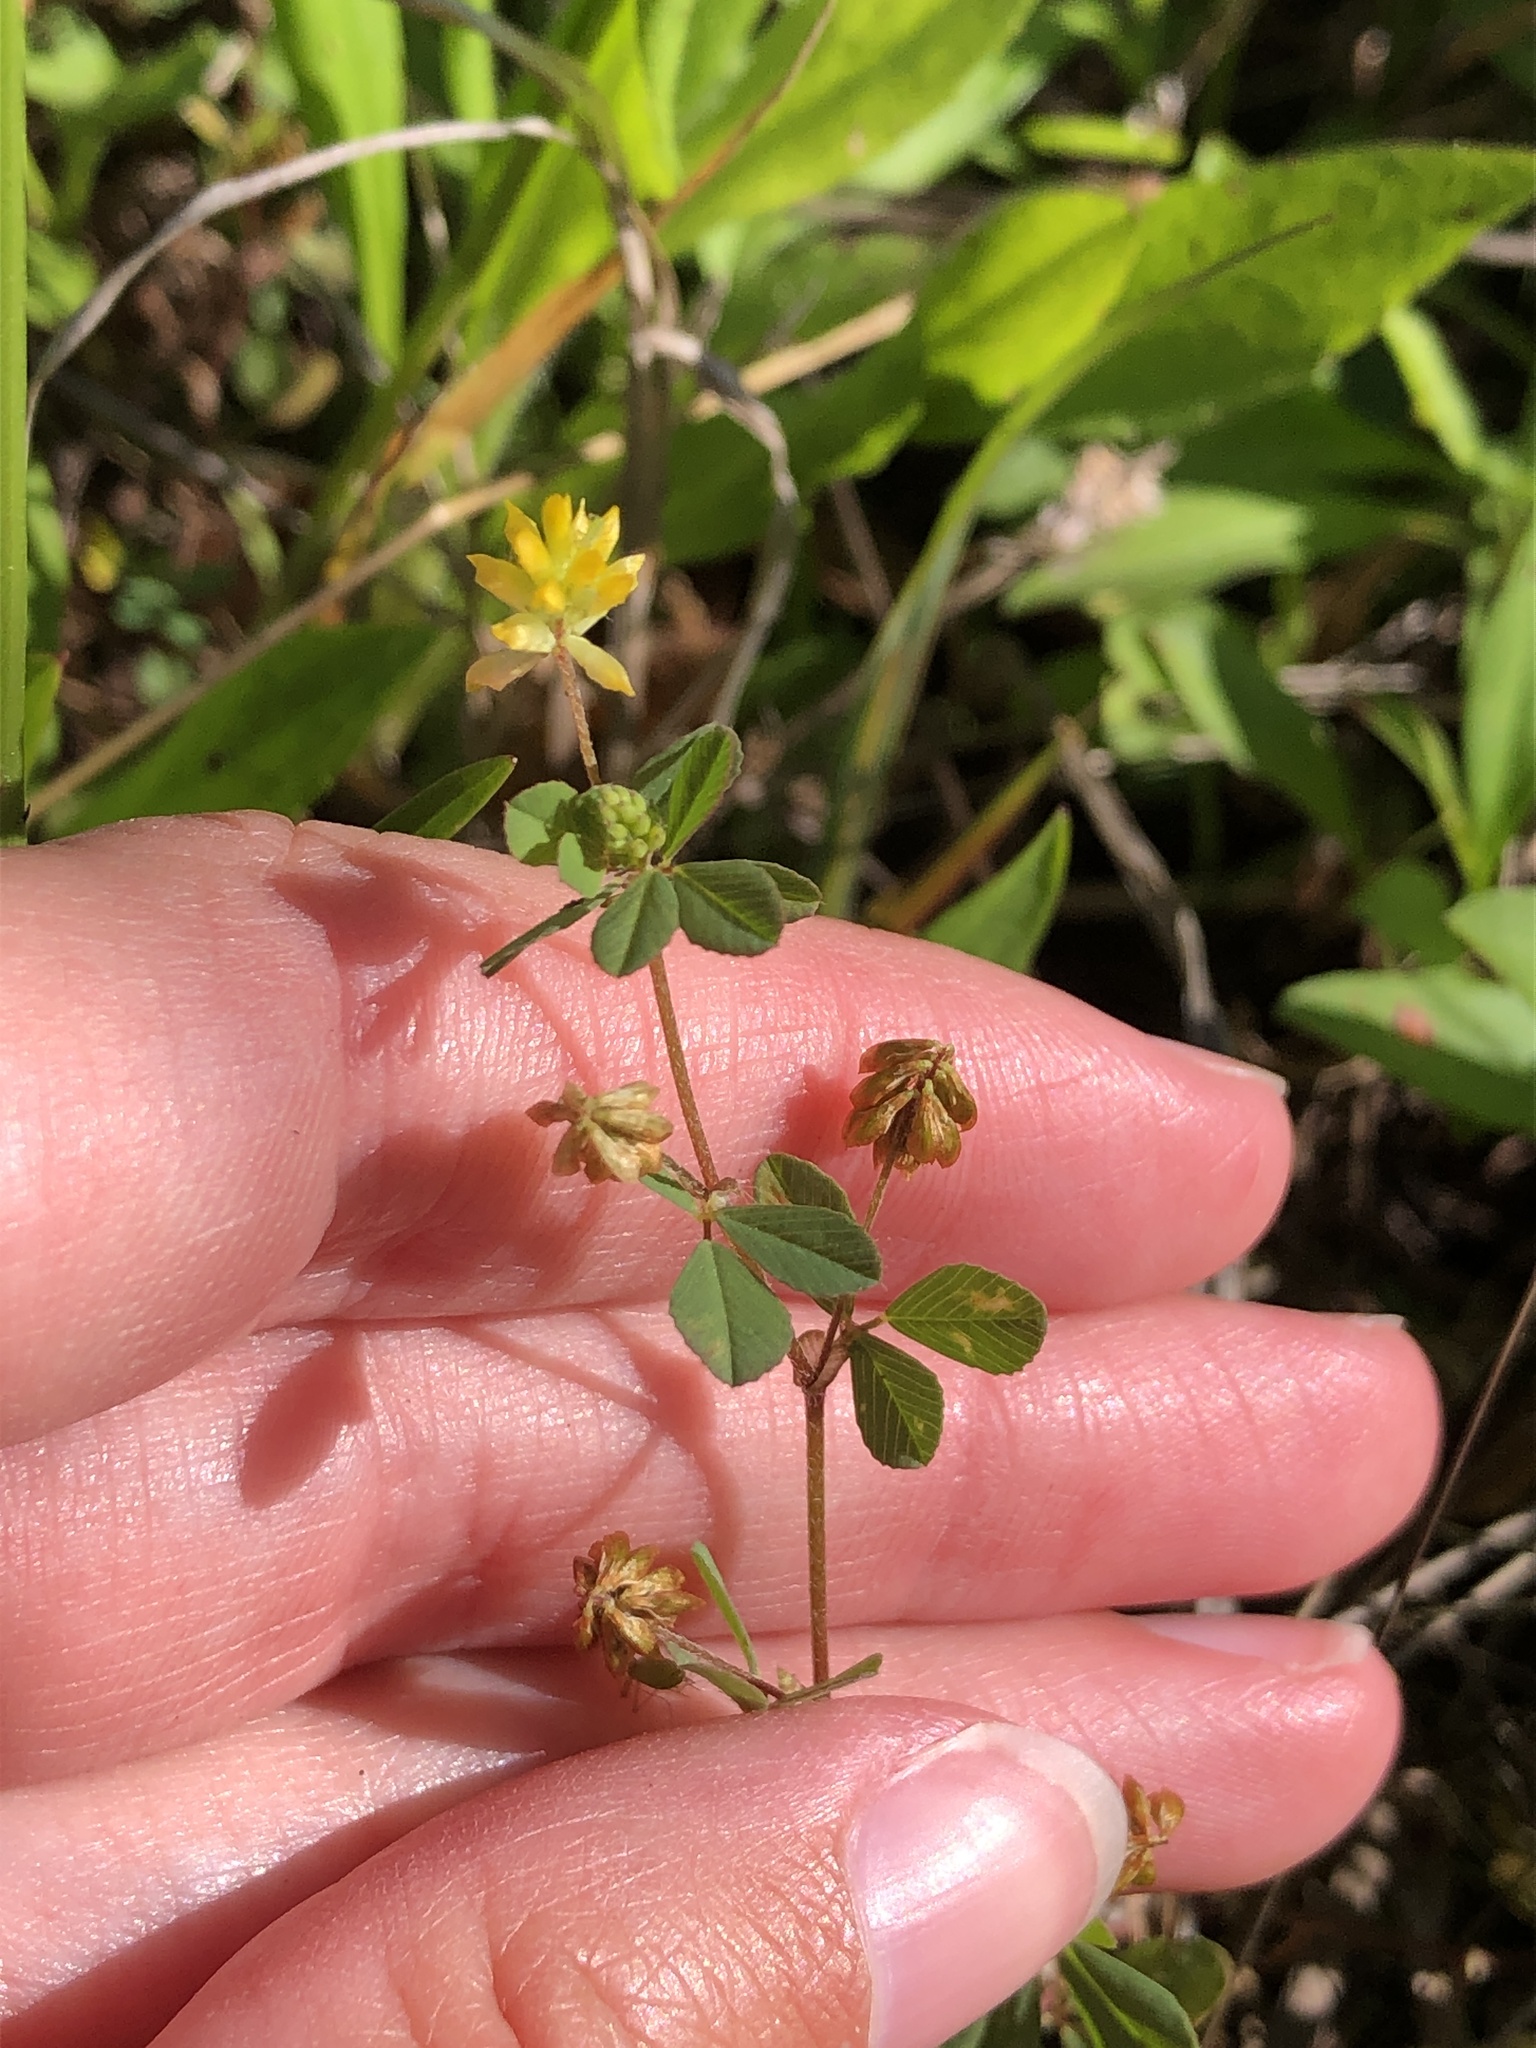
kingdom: Plantae
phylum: Tracheophyta
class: Magnoliopsida
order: Fabales
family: Fabaceae
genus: Trifolium
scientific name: Trifolium dubium
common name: Suckling clover
